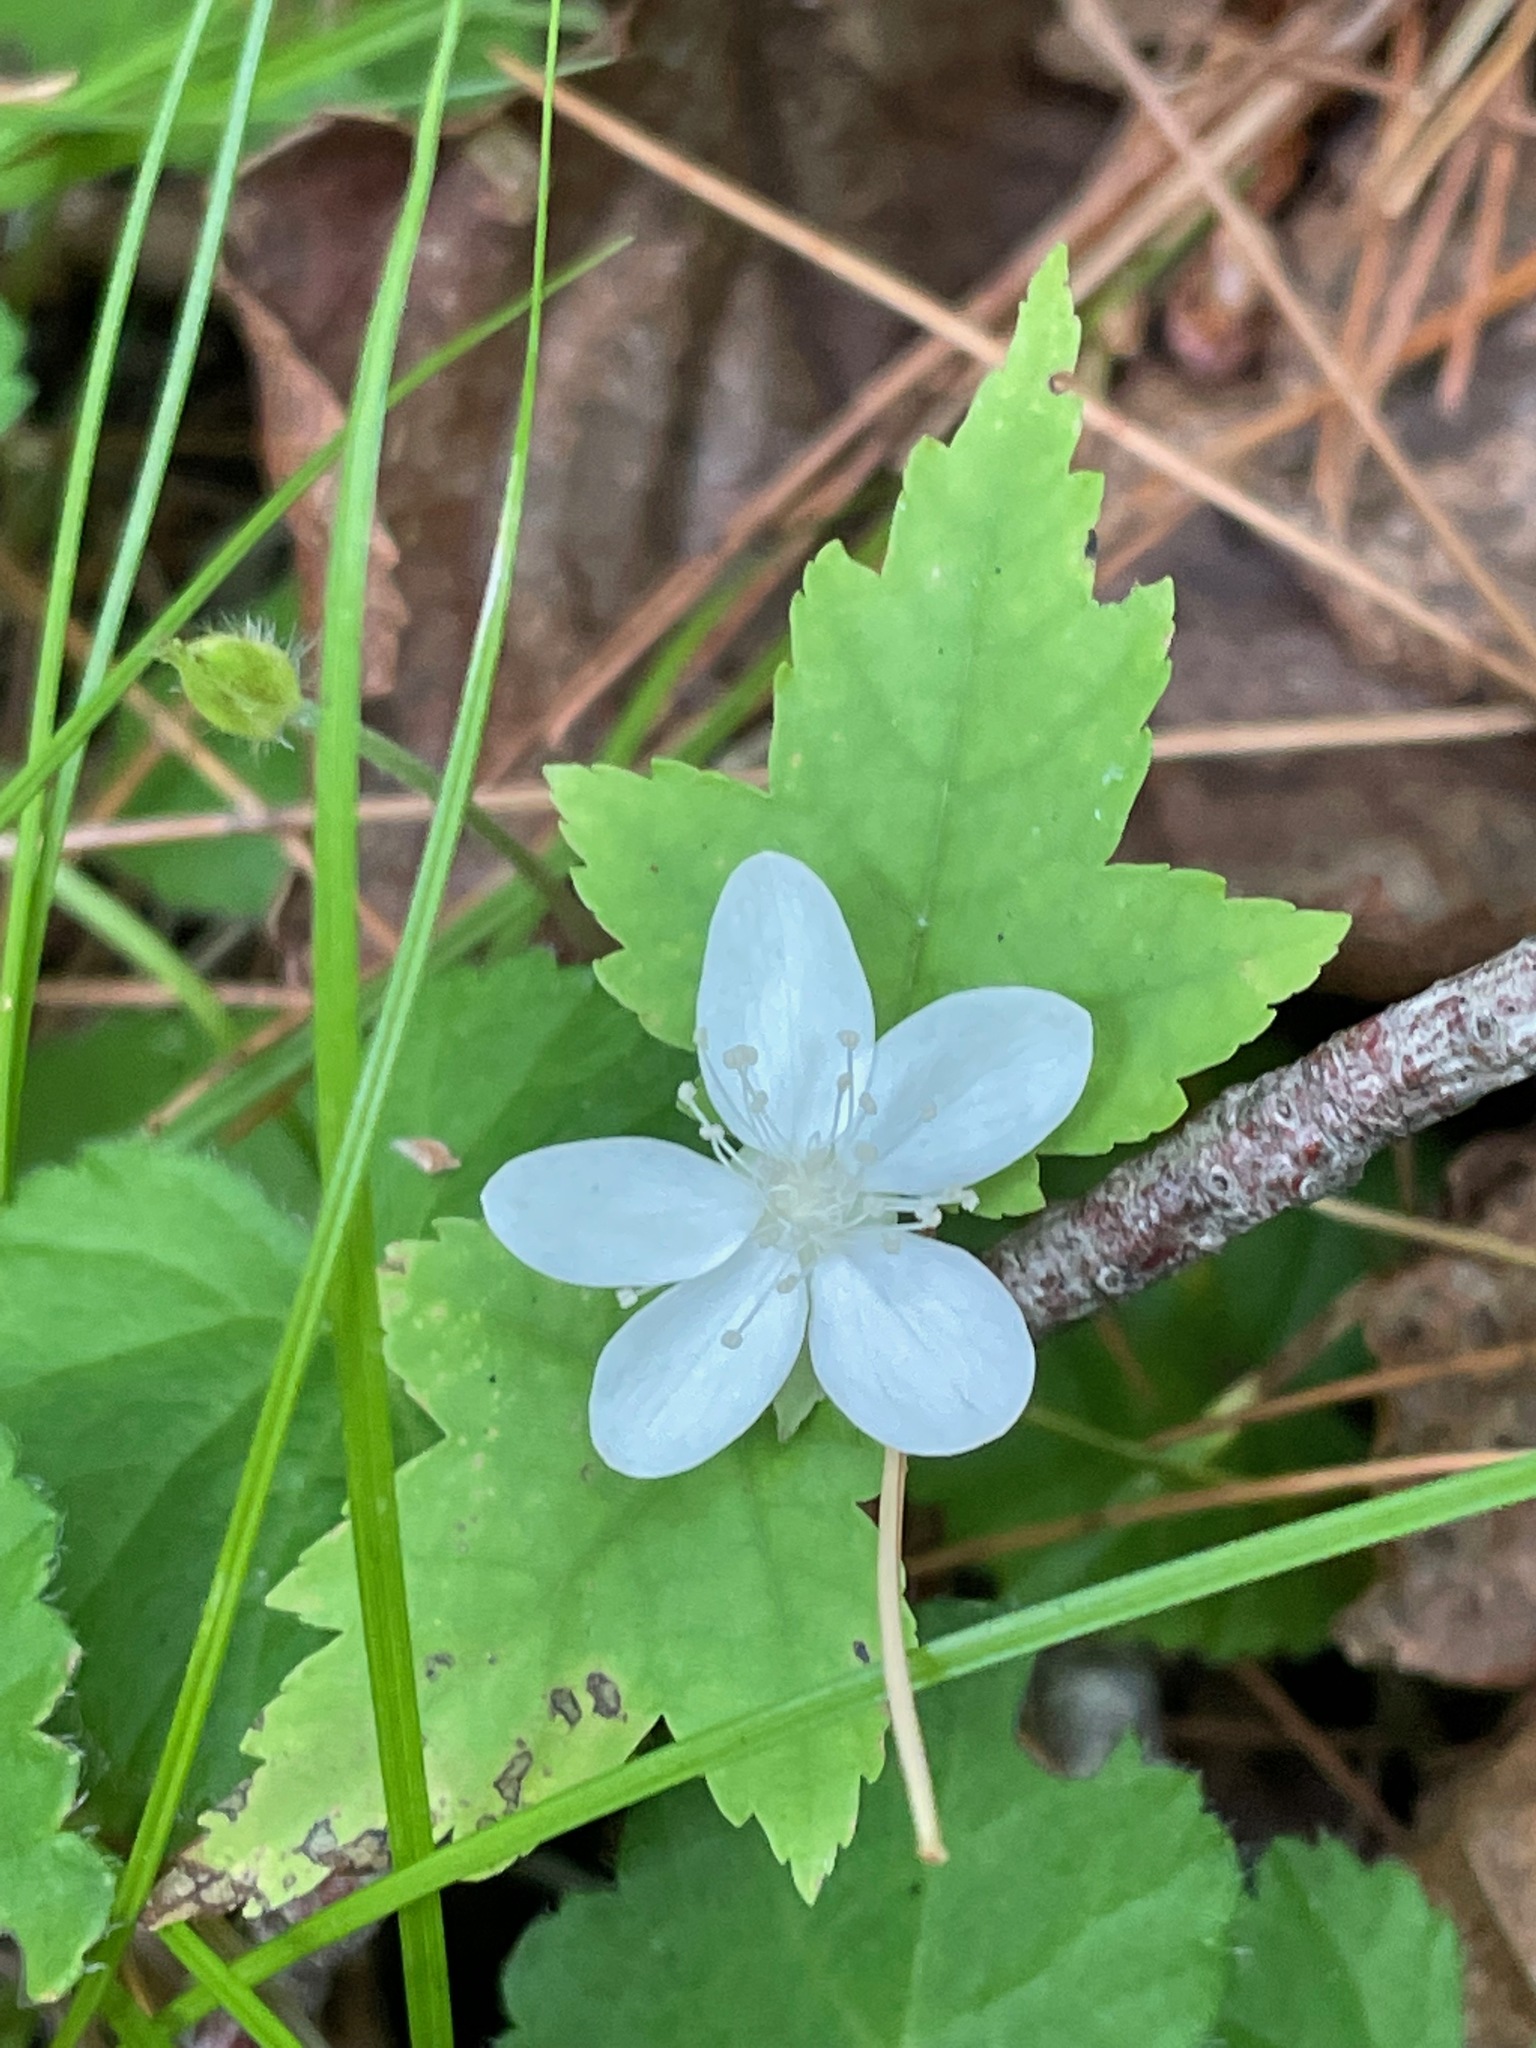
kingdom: Plantae
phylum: Tracheophyta
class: Magnoliopsida
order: Rosales
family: Rosaceae
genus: Dalibarda
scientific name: Dalibarda repens
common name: Dewdrop
